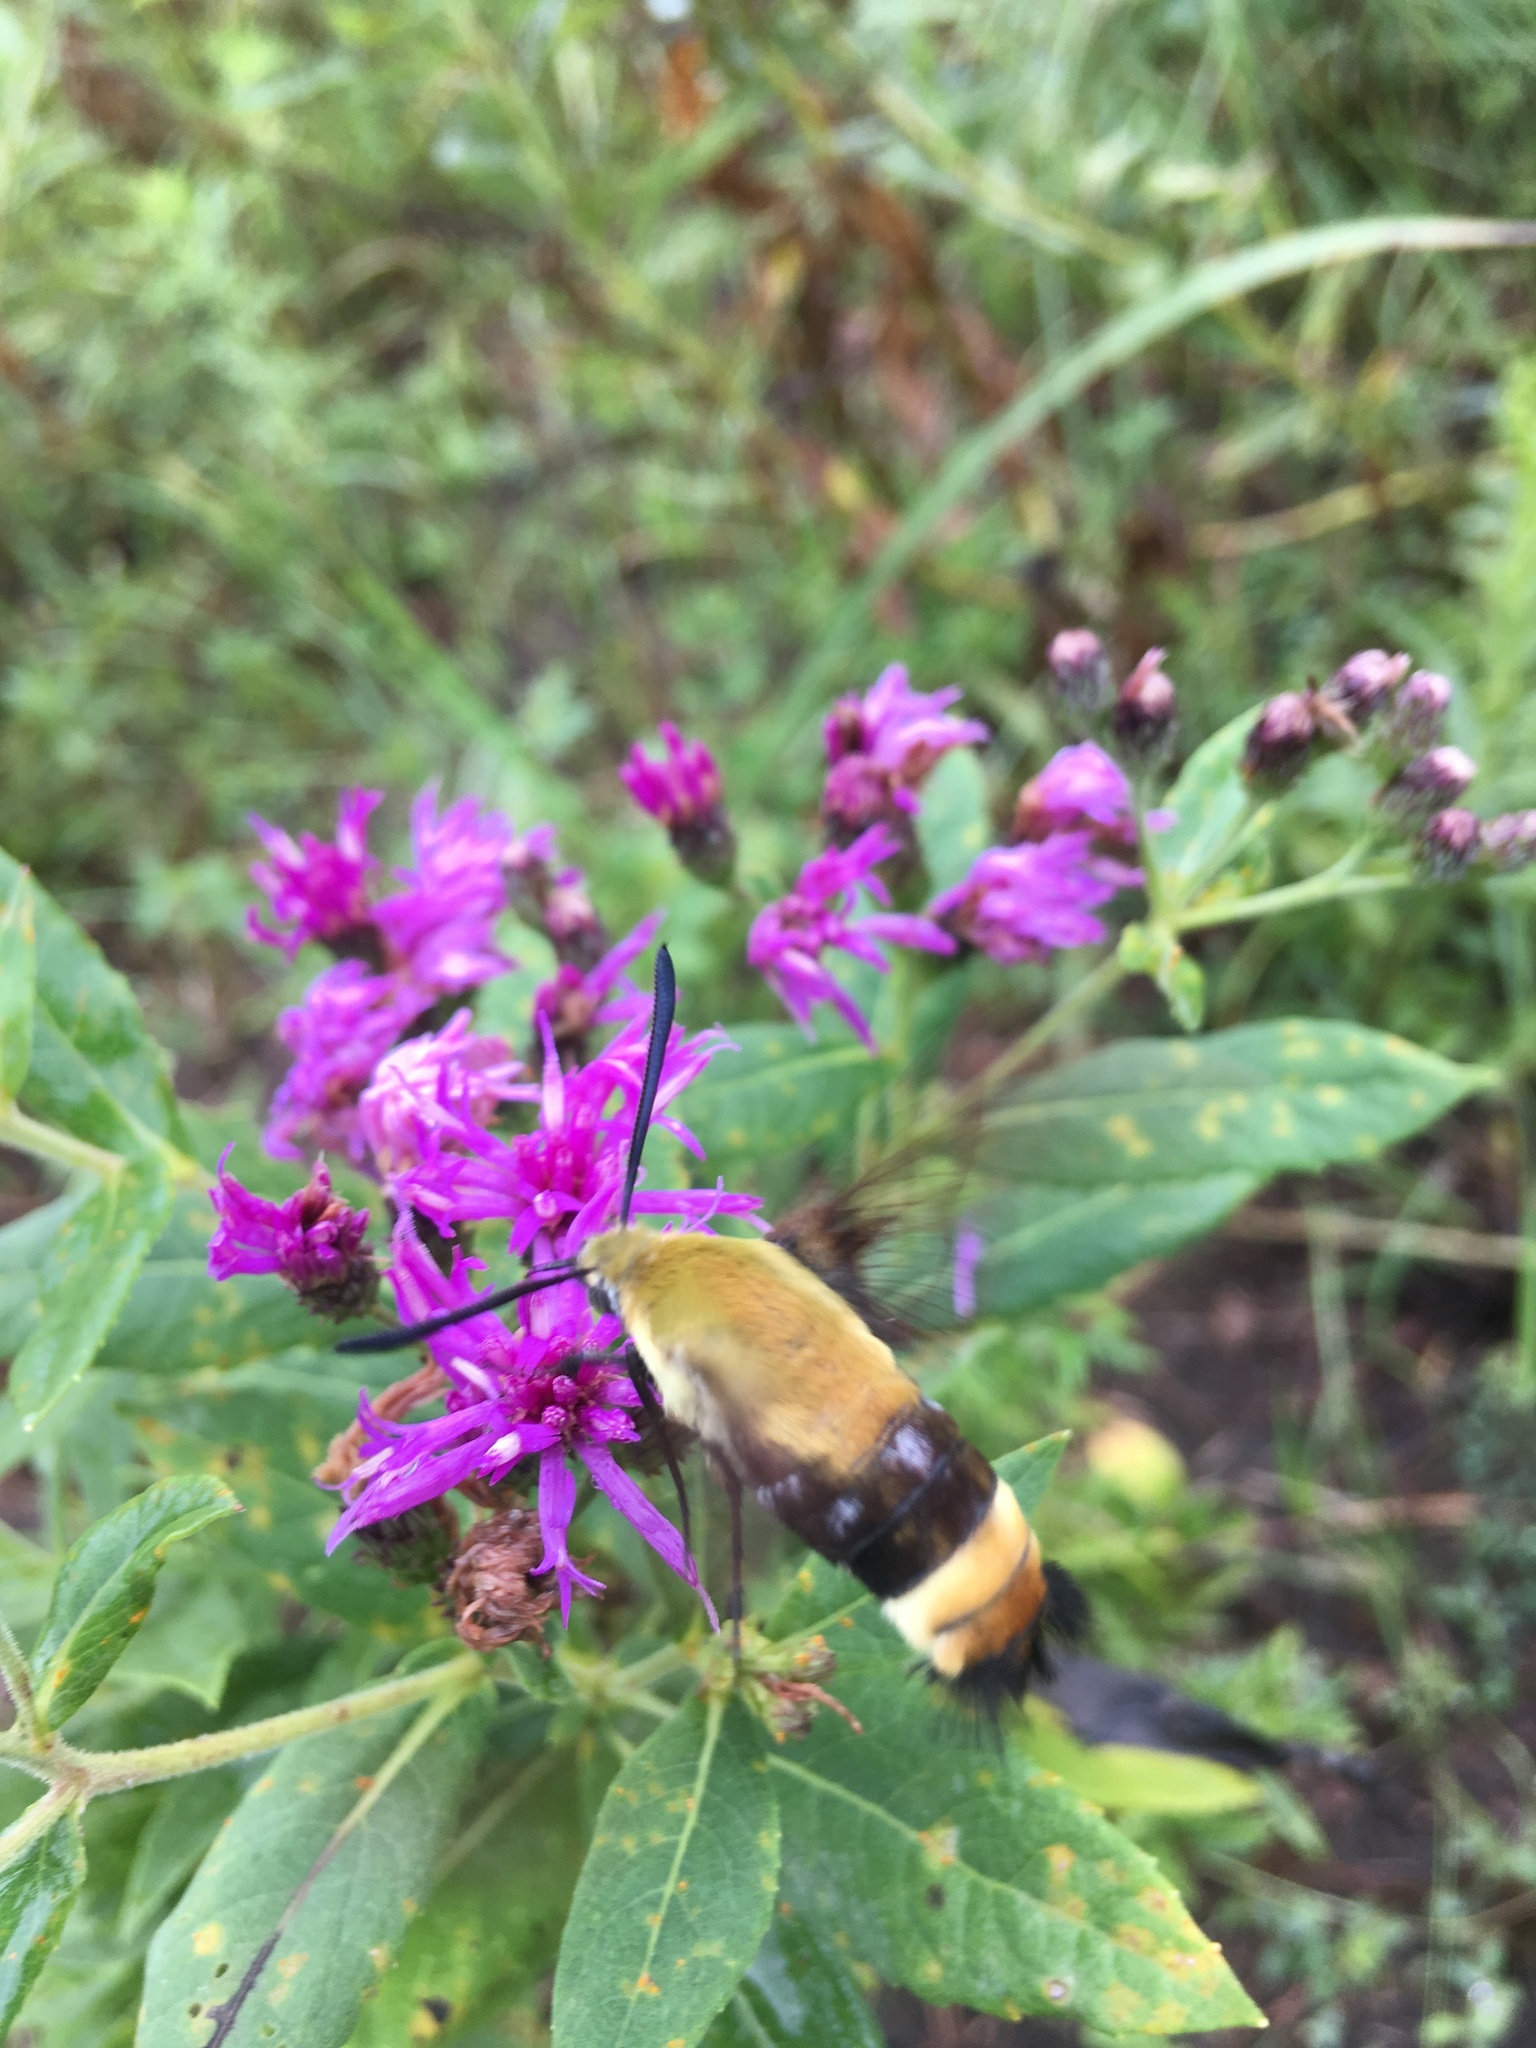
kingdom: Animalia
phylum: Arthropoda
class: Insecta
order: Lepidoptera
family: Sphingidae
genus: Hemaris
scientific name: Hemaris diffinis
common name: Bumblebee moth
